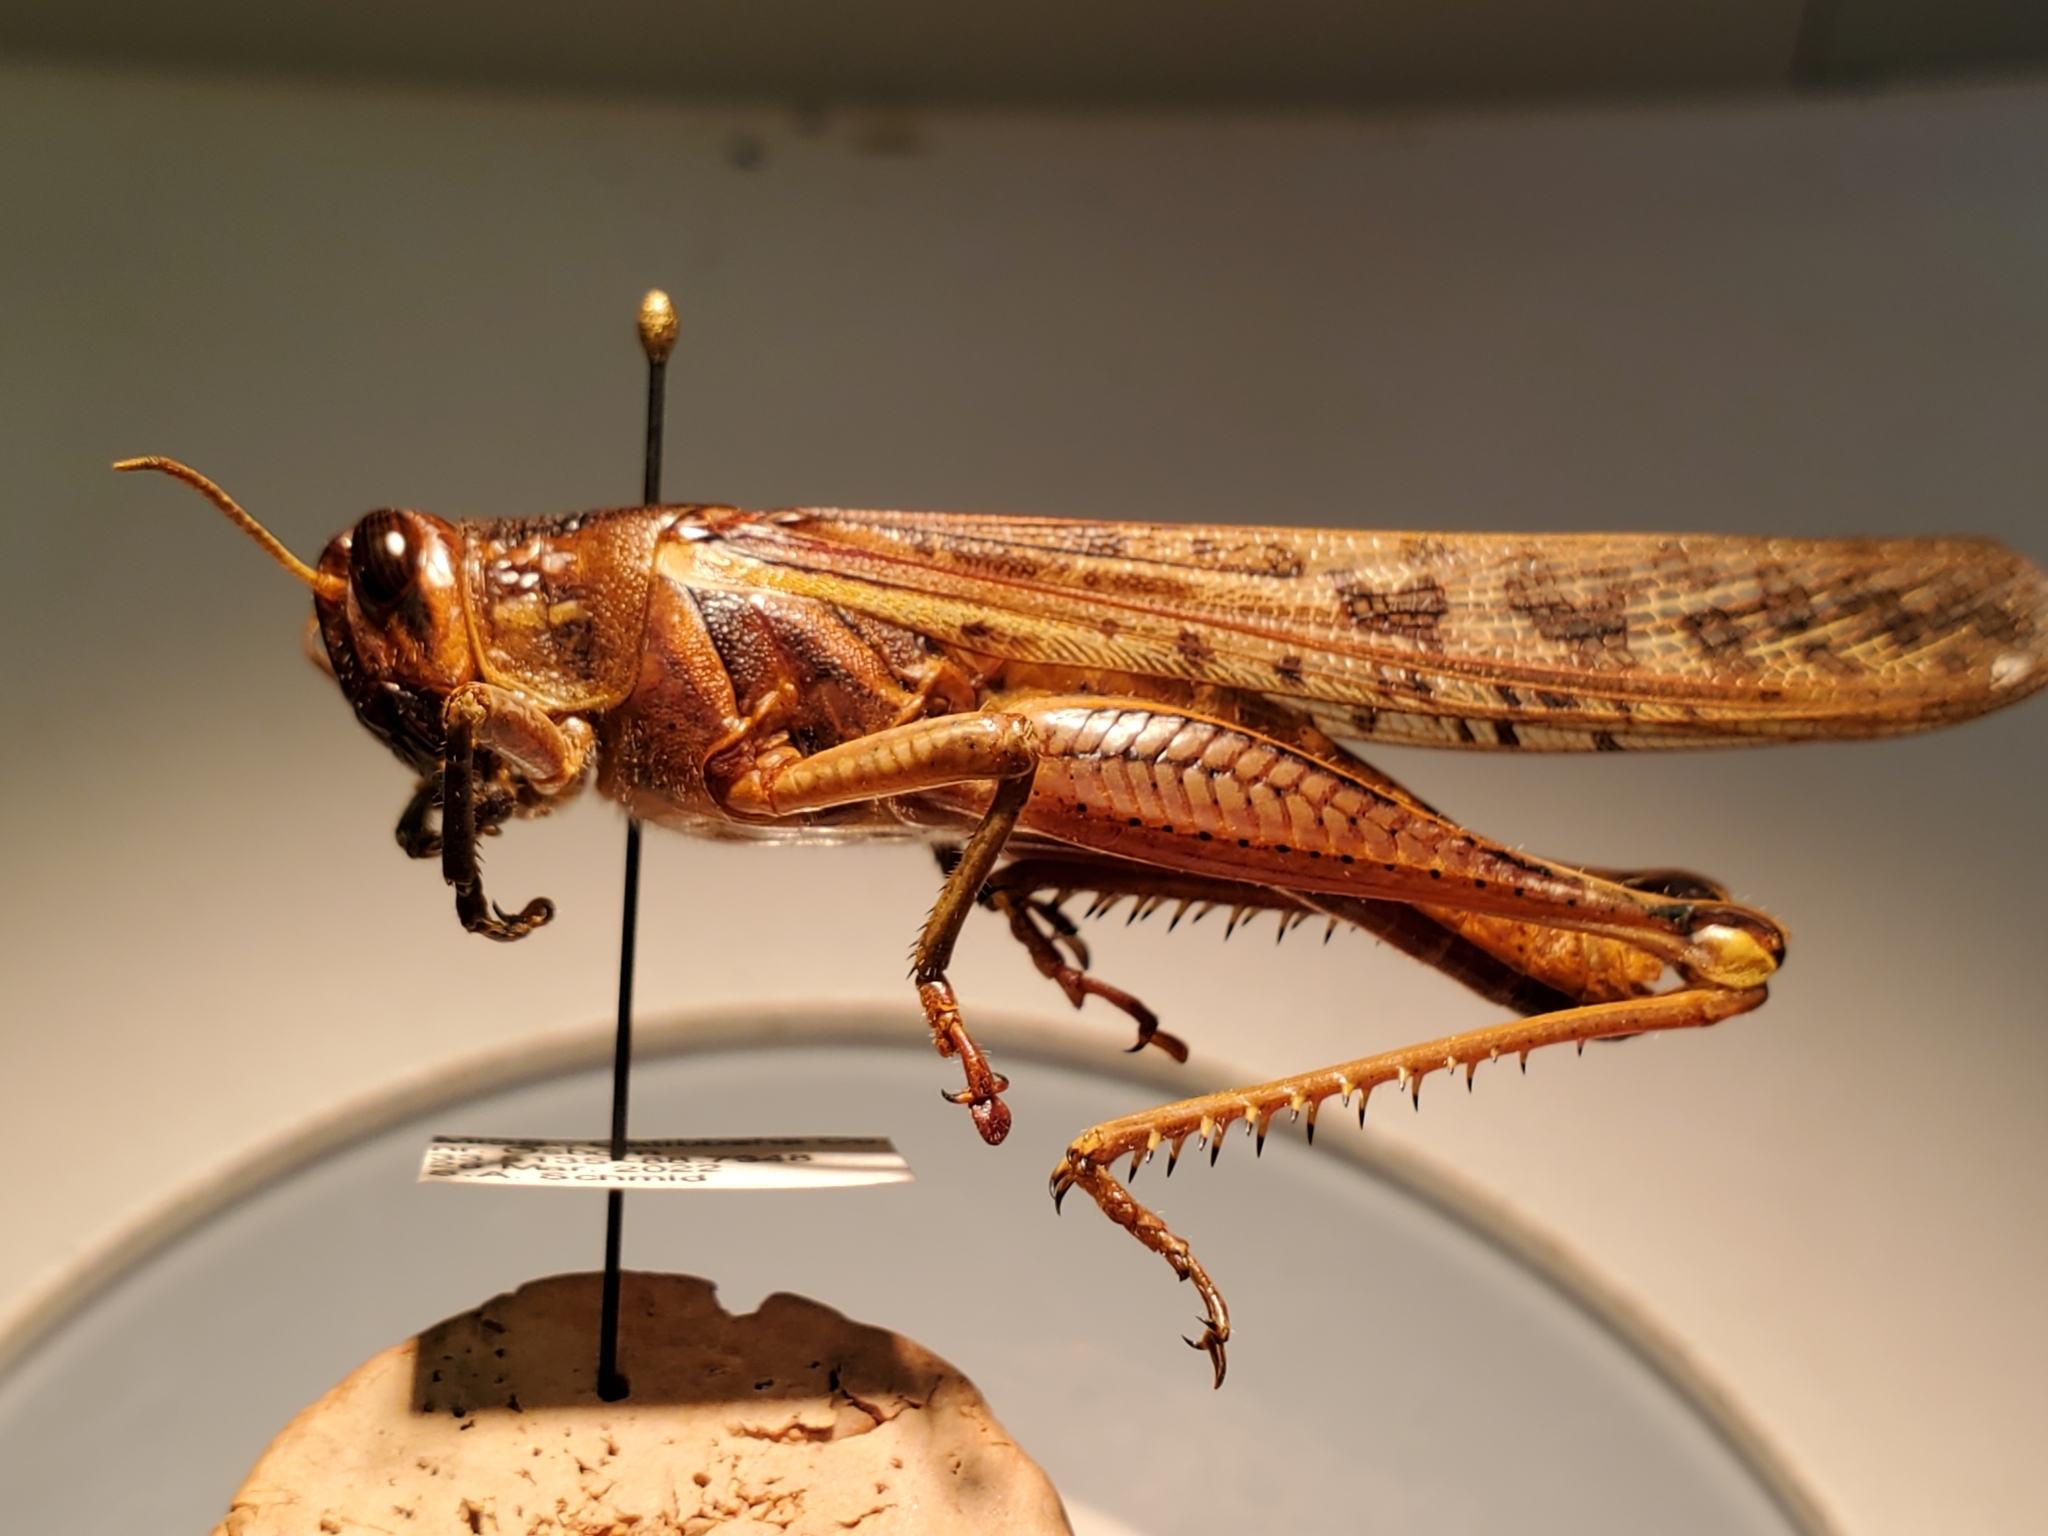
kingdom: Animalia
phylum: Arthropoda
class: Insecta
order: Orthoptera
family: Acrididae
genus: Schistocerca
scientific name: Schistocerca americana
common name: American bird locust
